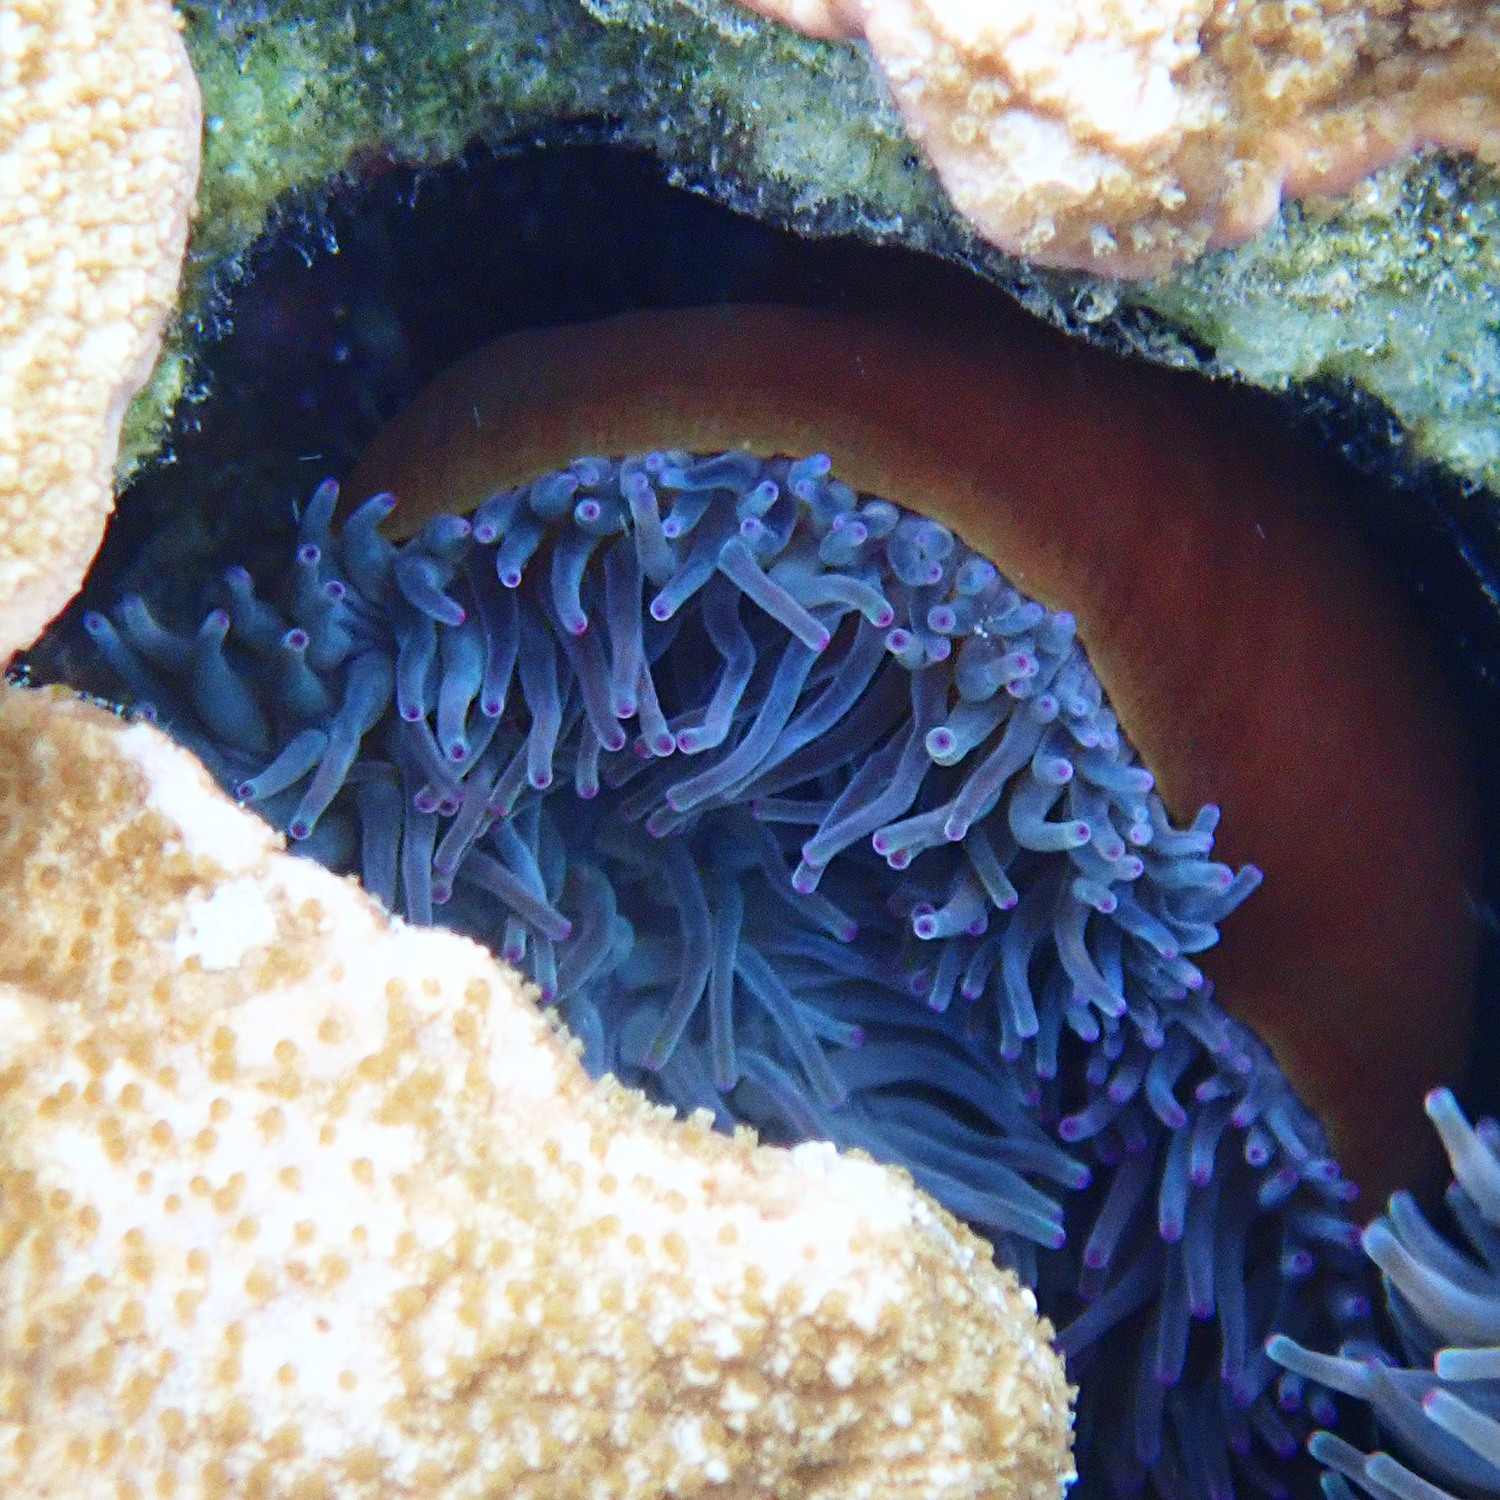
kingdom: Animalia
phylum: Cnidaria
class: Anthozoa
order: Actiniaria
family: Actiniidae
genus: Entacmaea
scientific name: Entacmaea quadricolor
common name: Bulb tentacle sea anemone
